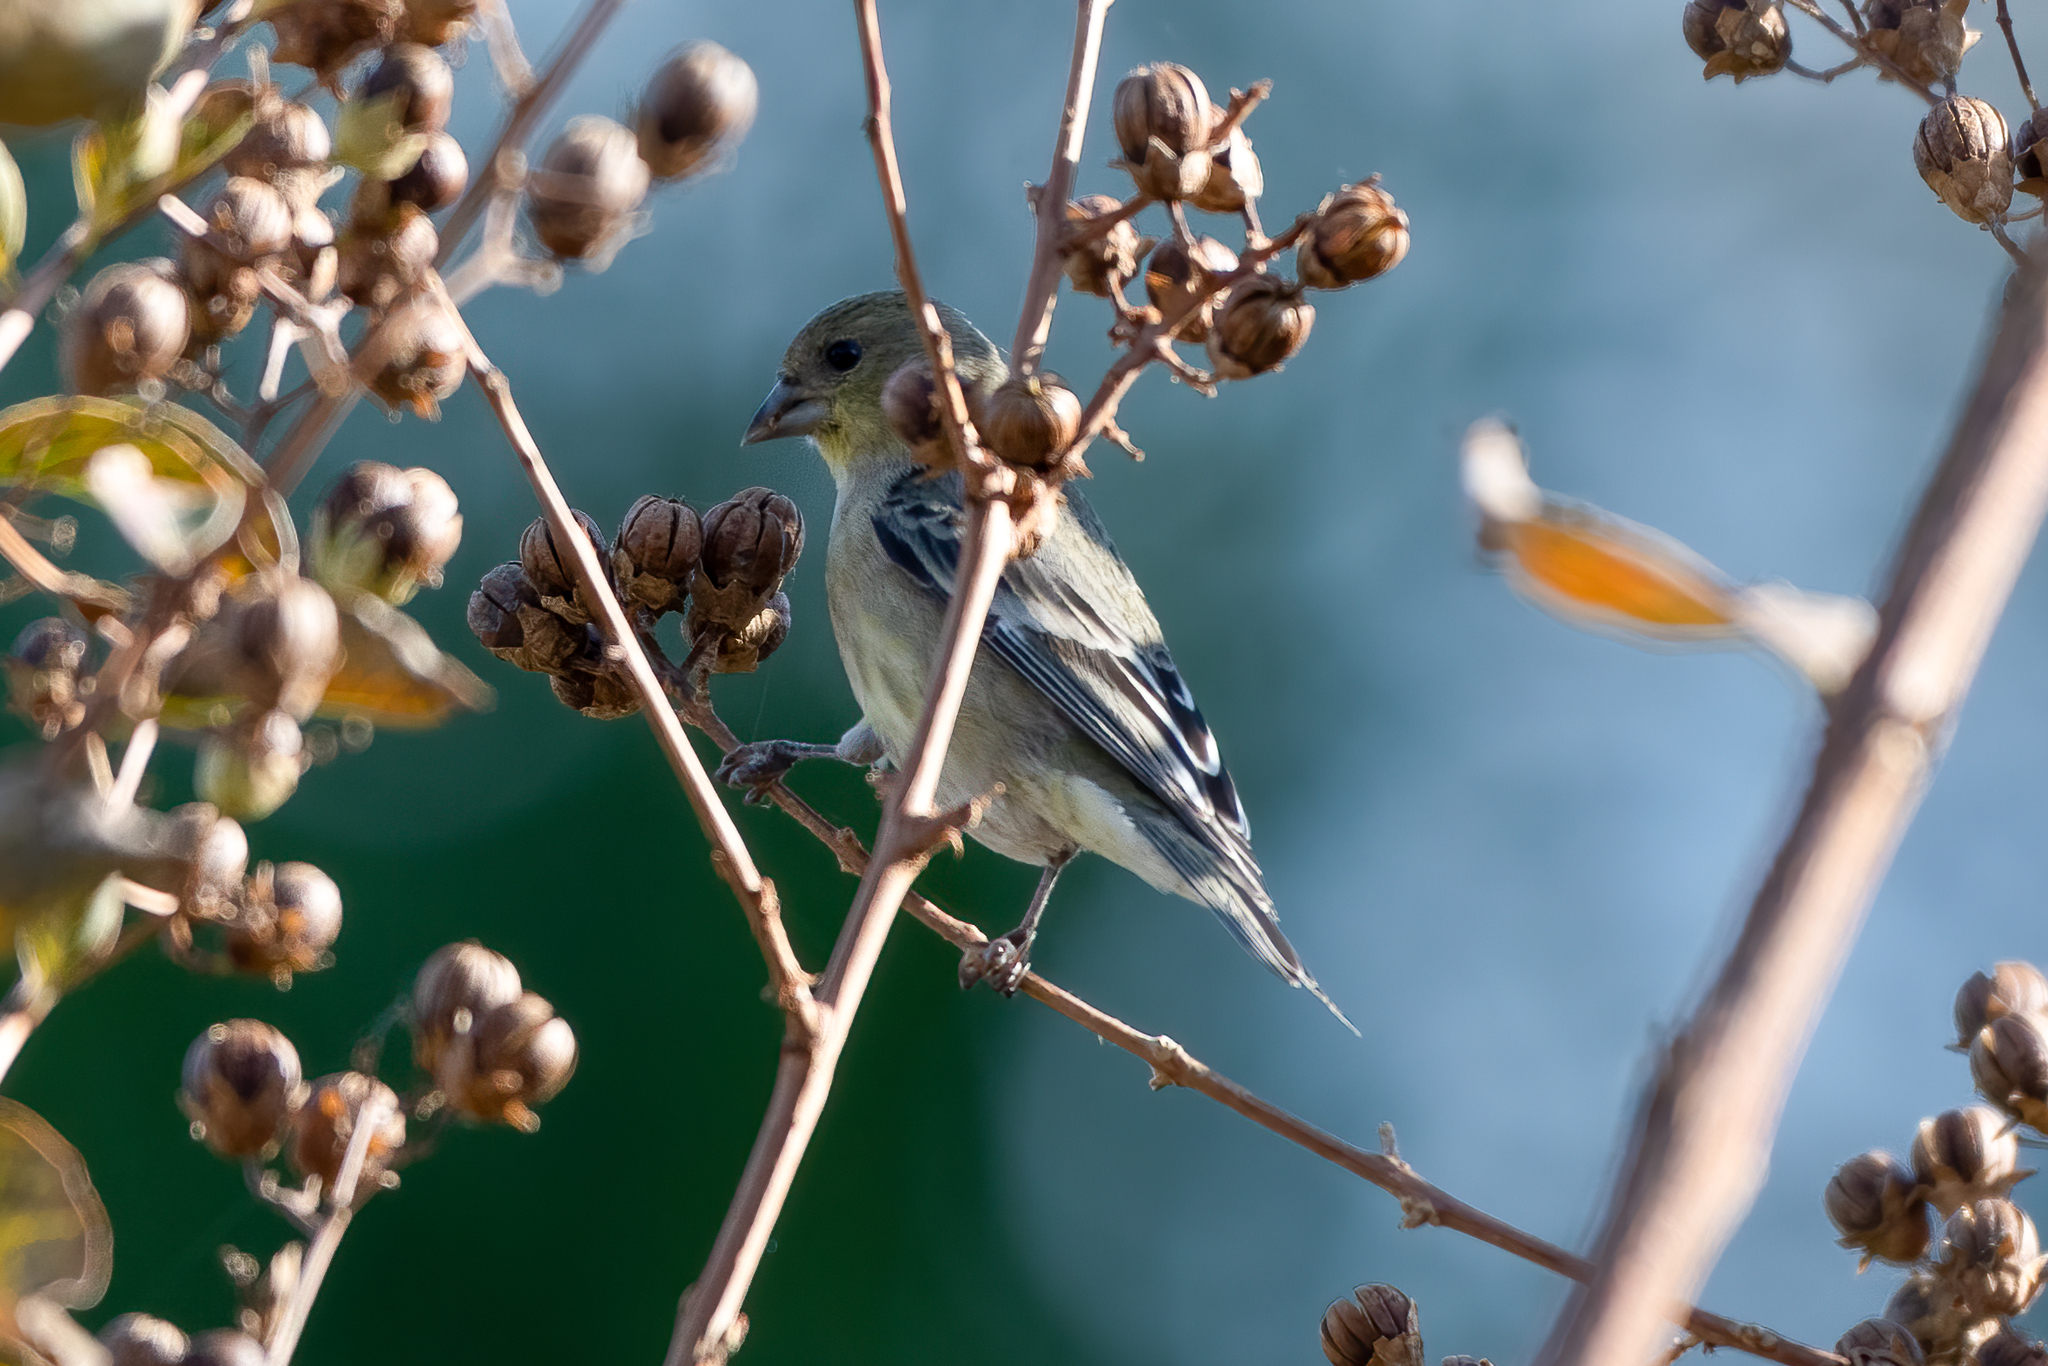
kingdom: Animalia
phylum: Chordata
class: Aves
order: Passeriformes
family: Fringillidae
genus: Spinus
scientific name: Spinus psaltria
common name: Lesser goldfinch
